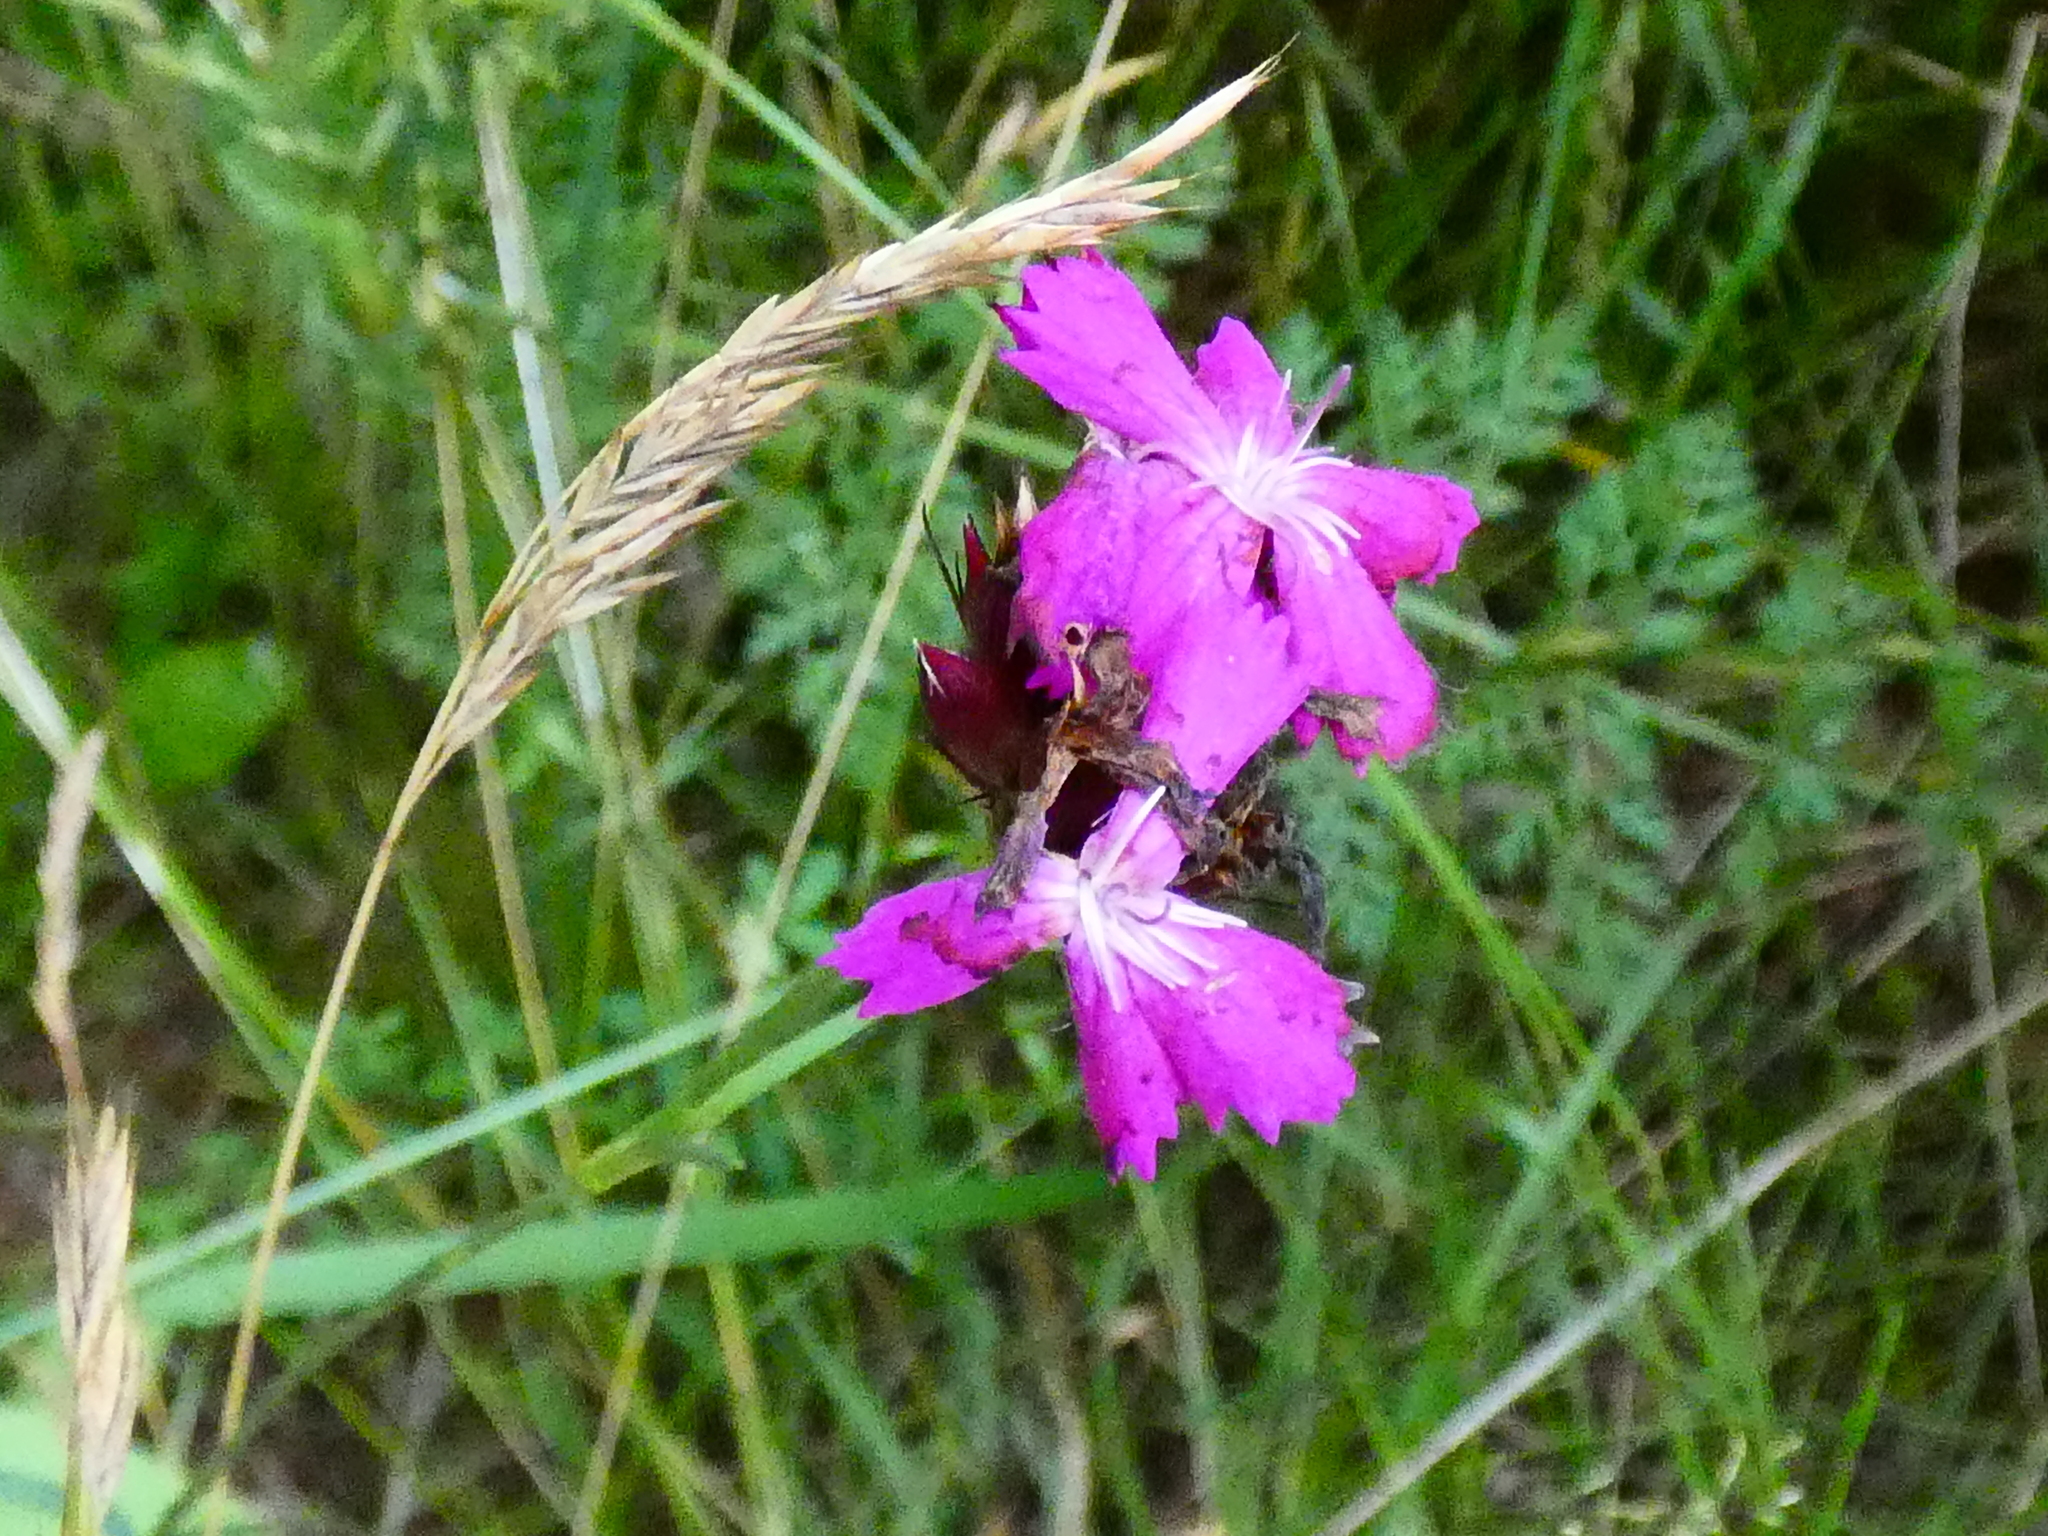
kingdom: Plantae
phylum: Tracheophyta
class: Magnoliopsida
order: Caryophyllales
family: Caryophyllaceae
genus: Dianthus
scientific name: Dianthus carthusianorum
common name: Carthusian pink
